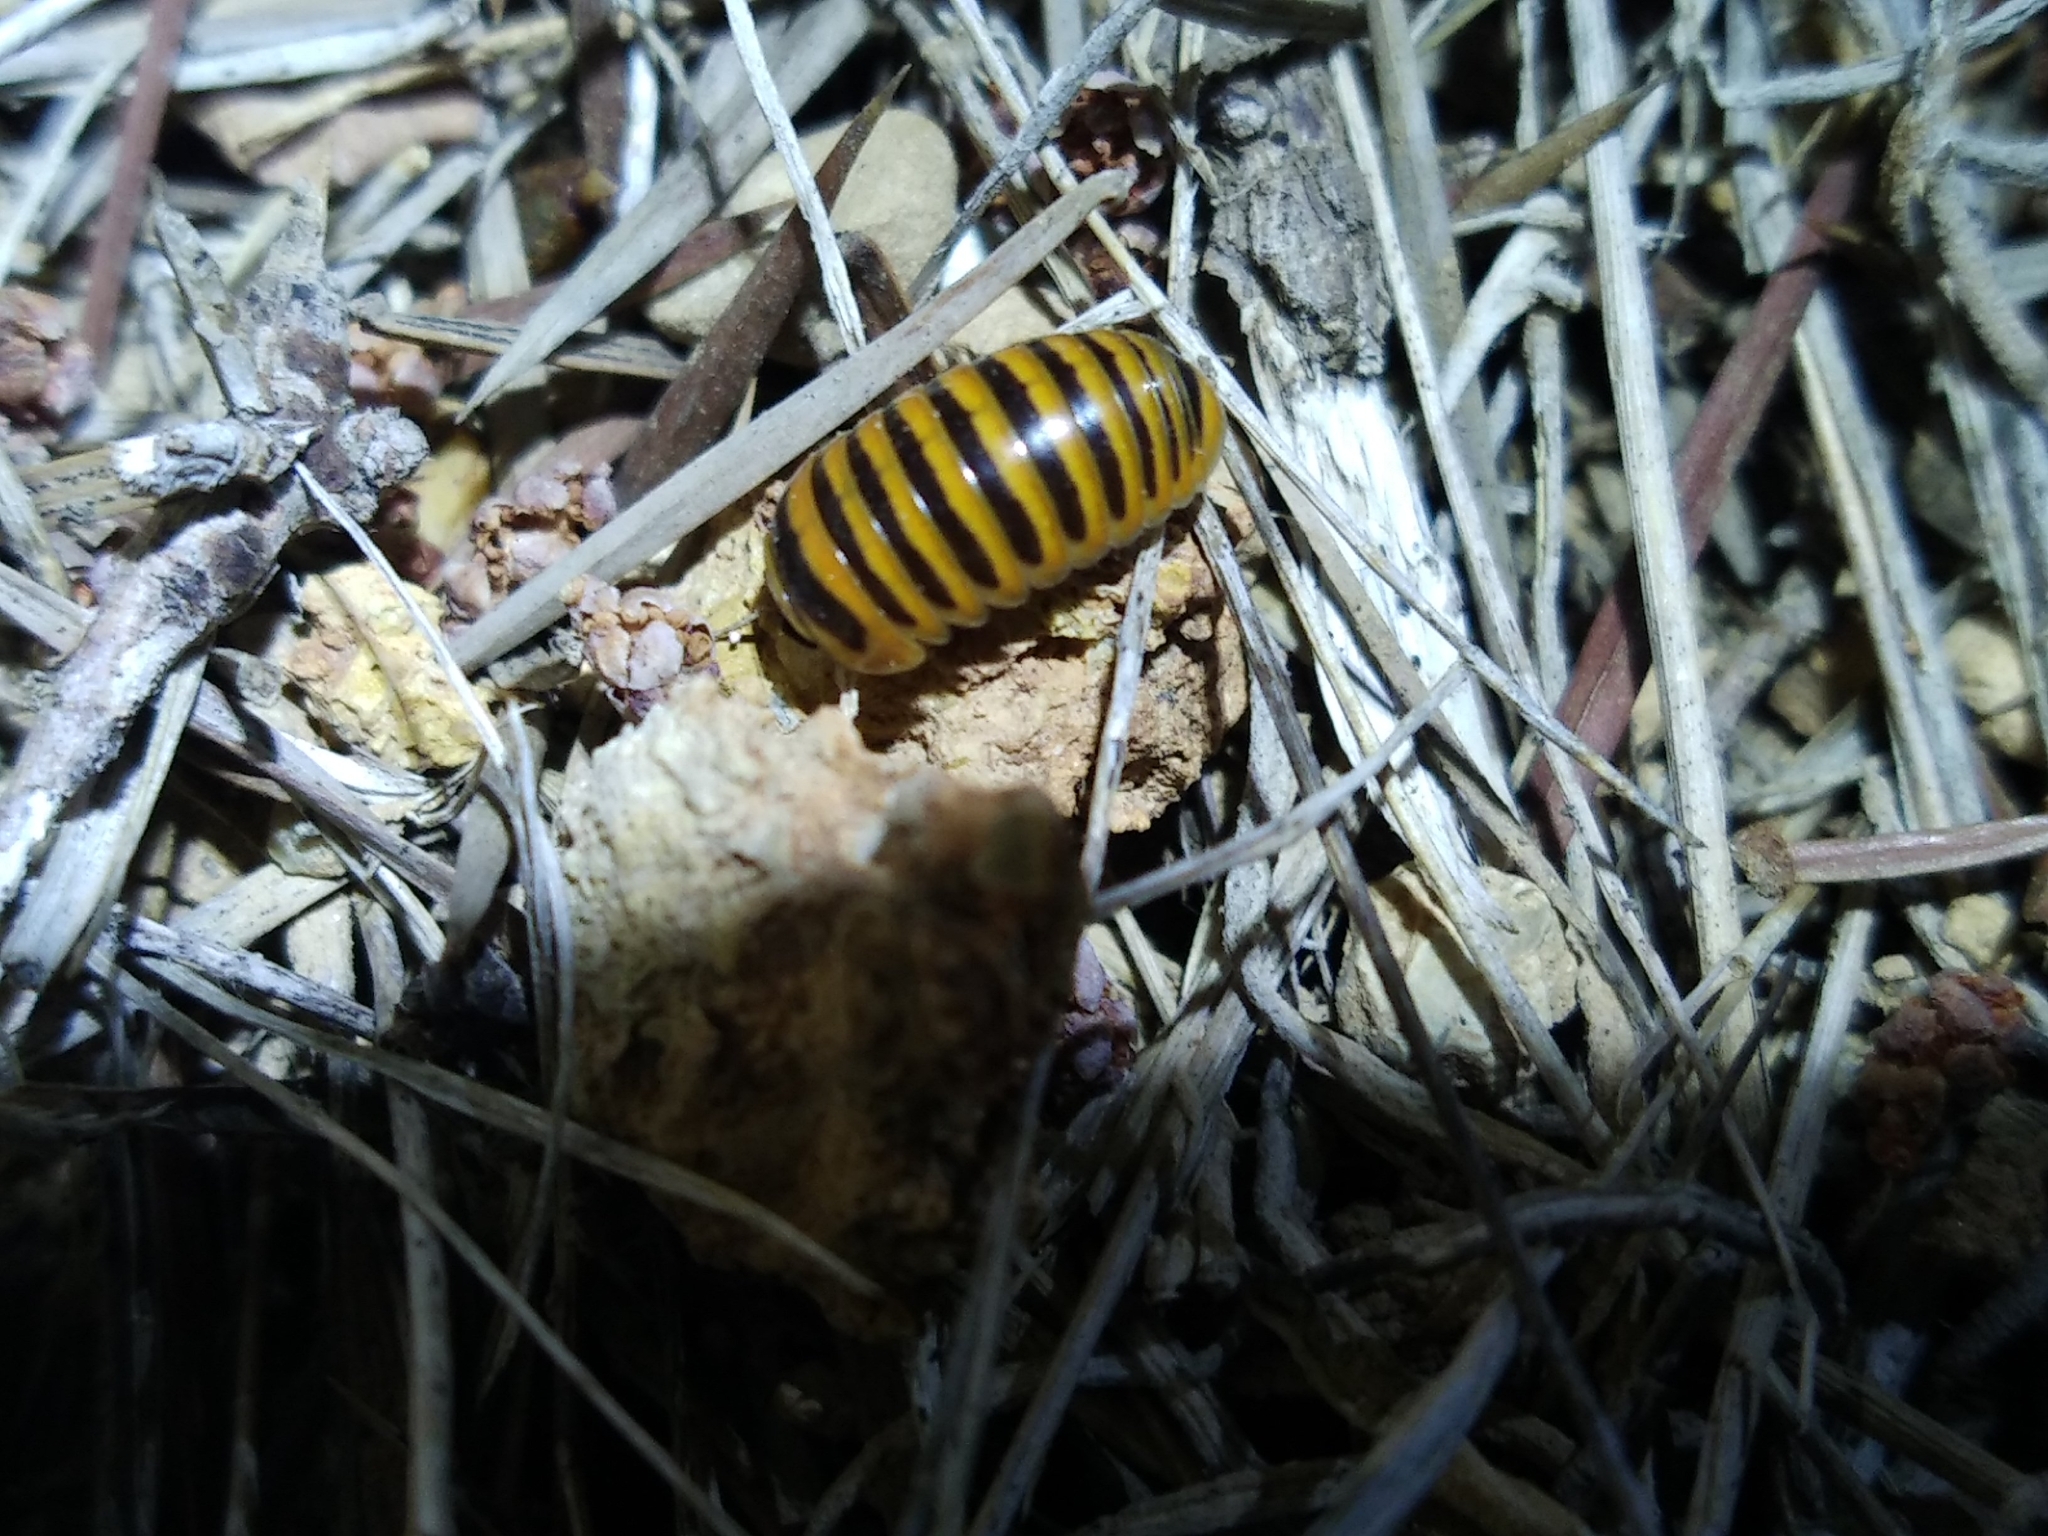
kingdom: Animalia
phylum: Arthropoda
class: Diplopoda
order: Glomerida
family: Glomeridae
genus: Glomeris
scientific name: Glomeris annulata
